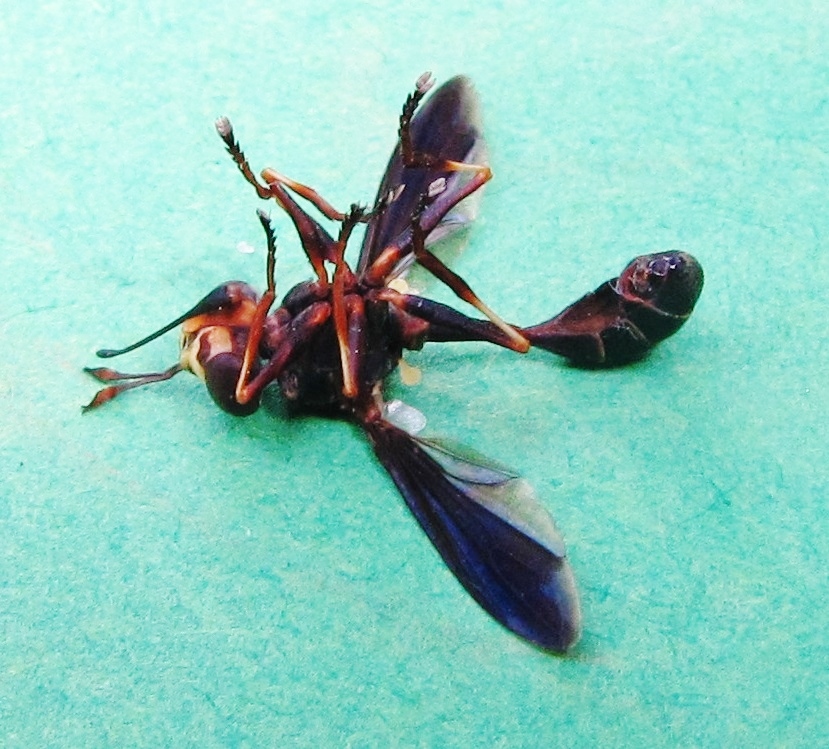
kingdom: Animalia
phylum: Arthropoda
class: Insecta
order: Diptera
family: Conopidae
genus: Physocephala
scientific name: Physocephala sagittaria
